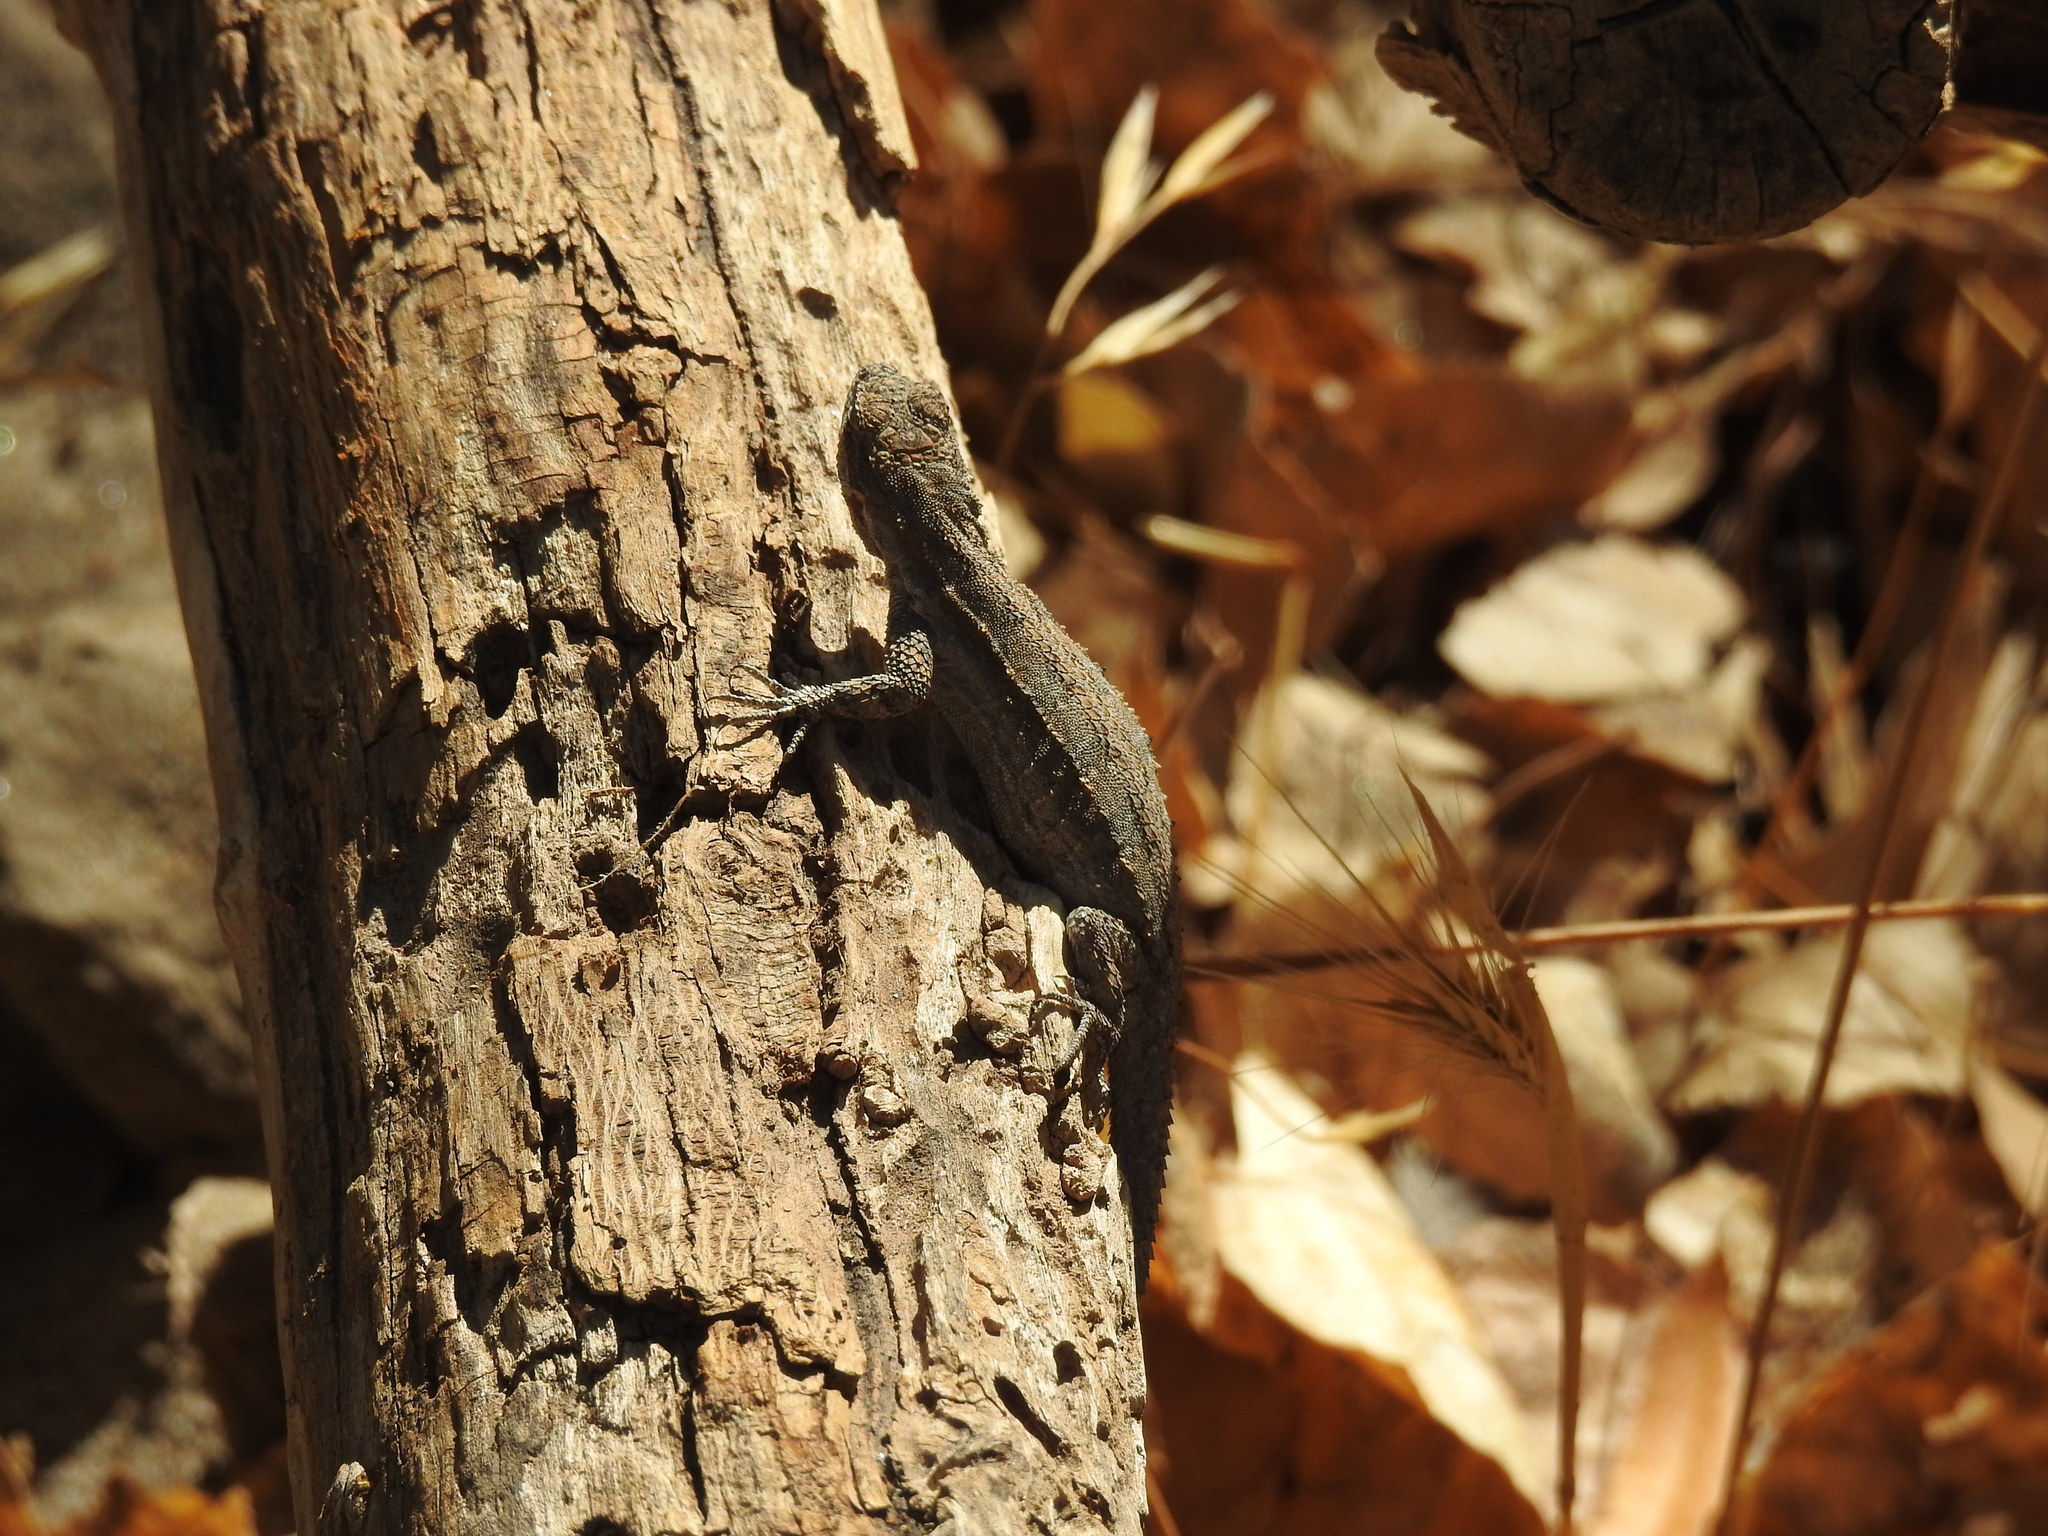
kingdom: Animalia
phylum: Chordata
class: Squamata
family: Phrynosomatidae
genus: Urosaurus
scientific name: Urosaurus ornatus
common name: Ornate tree lizard
